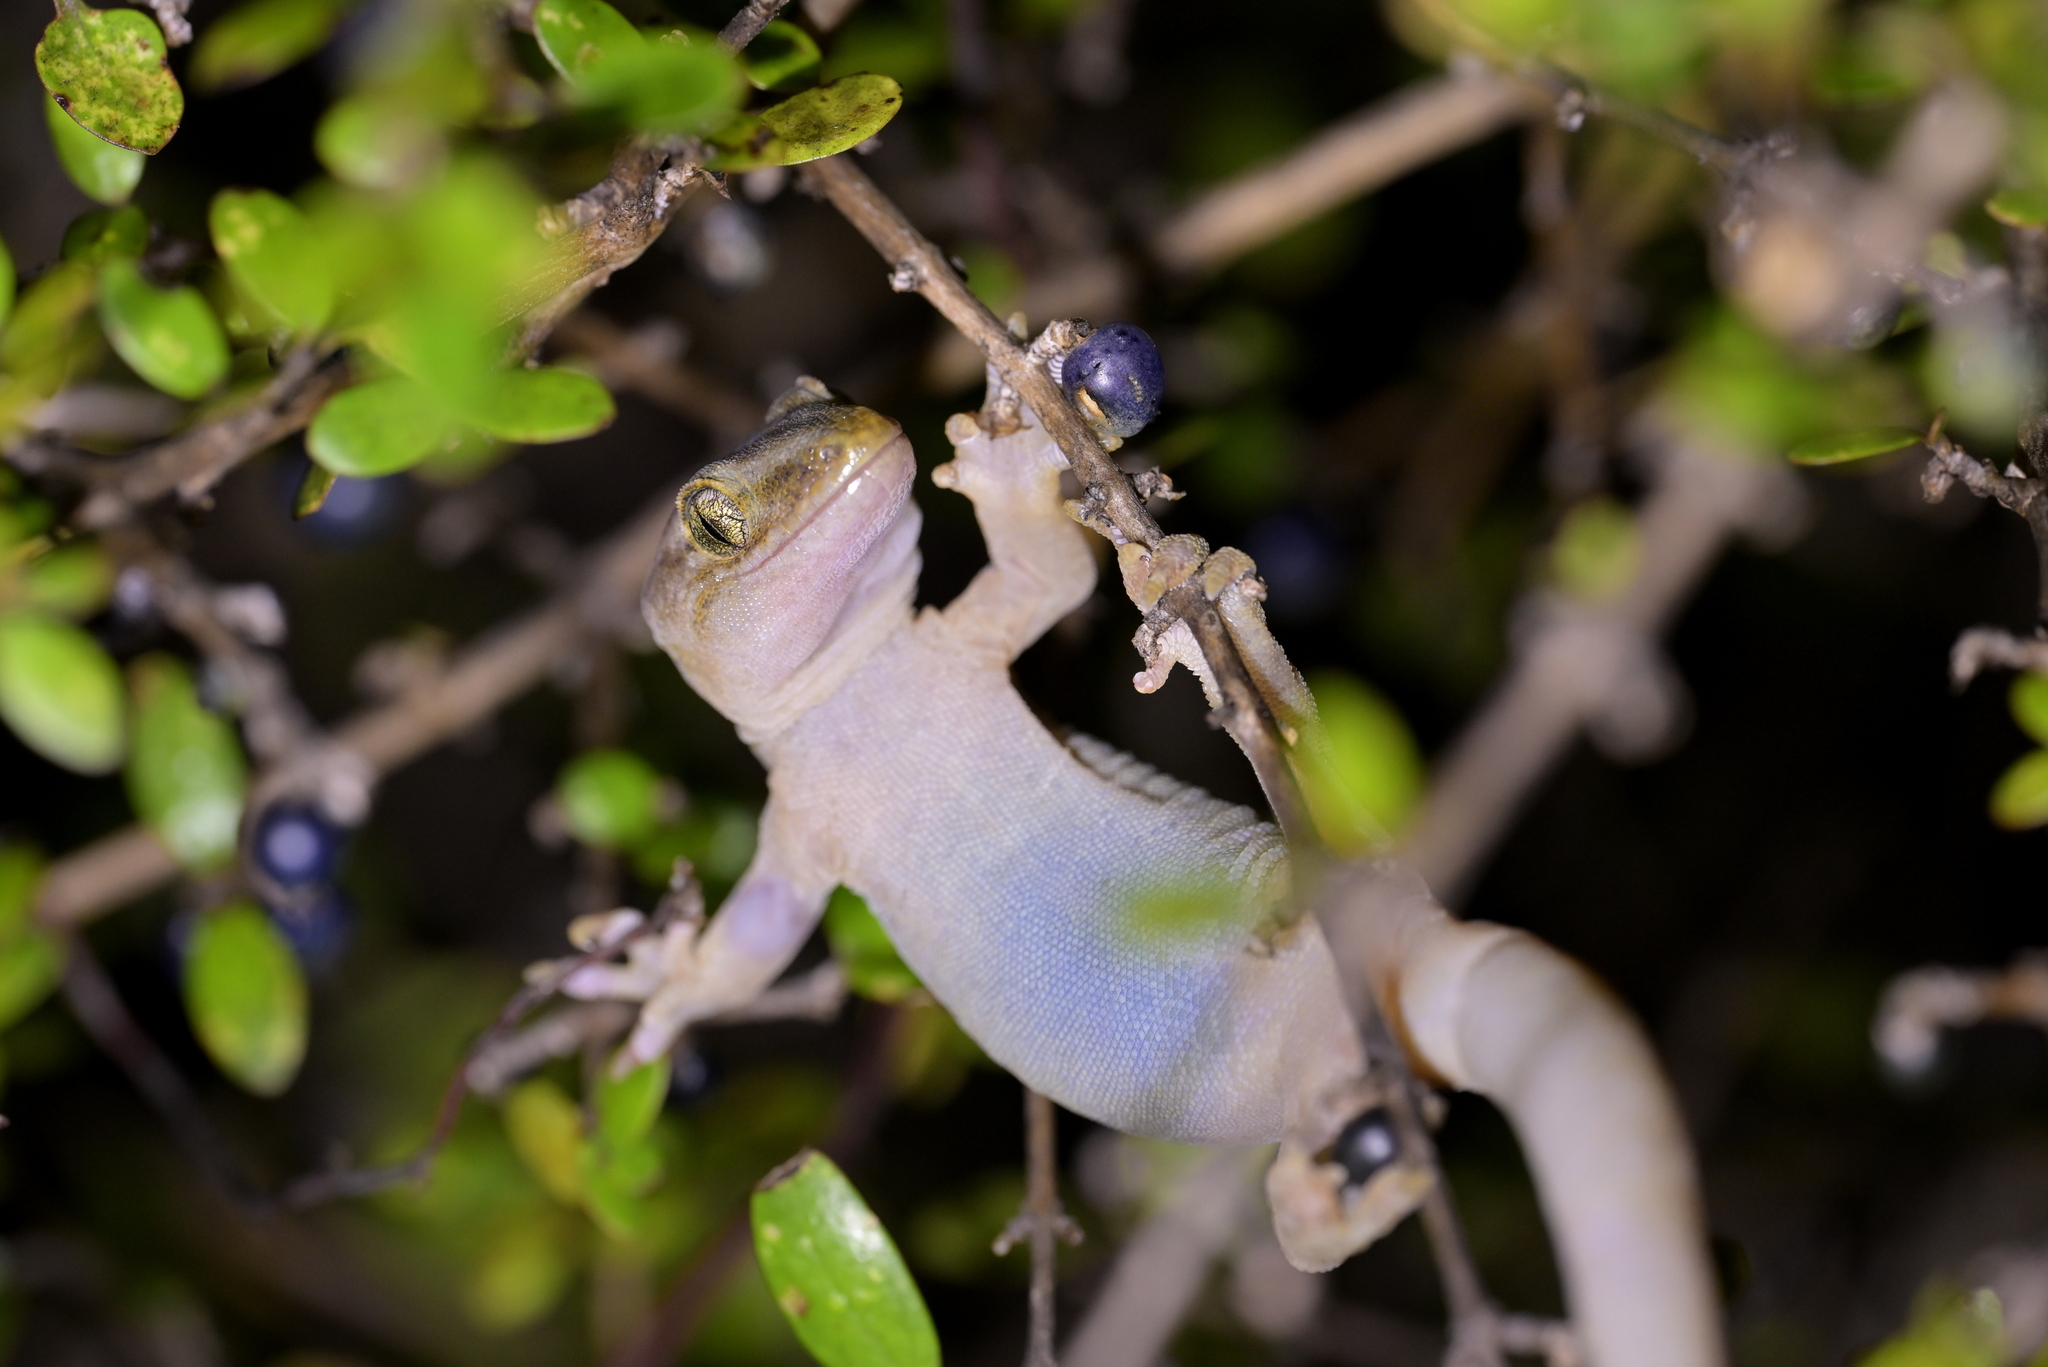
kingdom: Animalia
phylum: Chordata
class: Squamata
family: Diplodactylidae
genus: Woodworthia
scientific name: Woodworthia maculata
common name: Raukawa gecko
